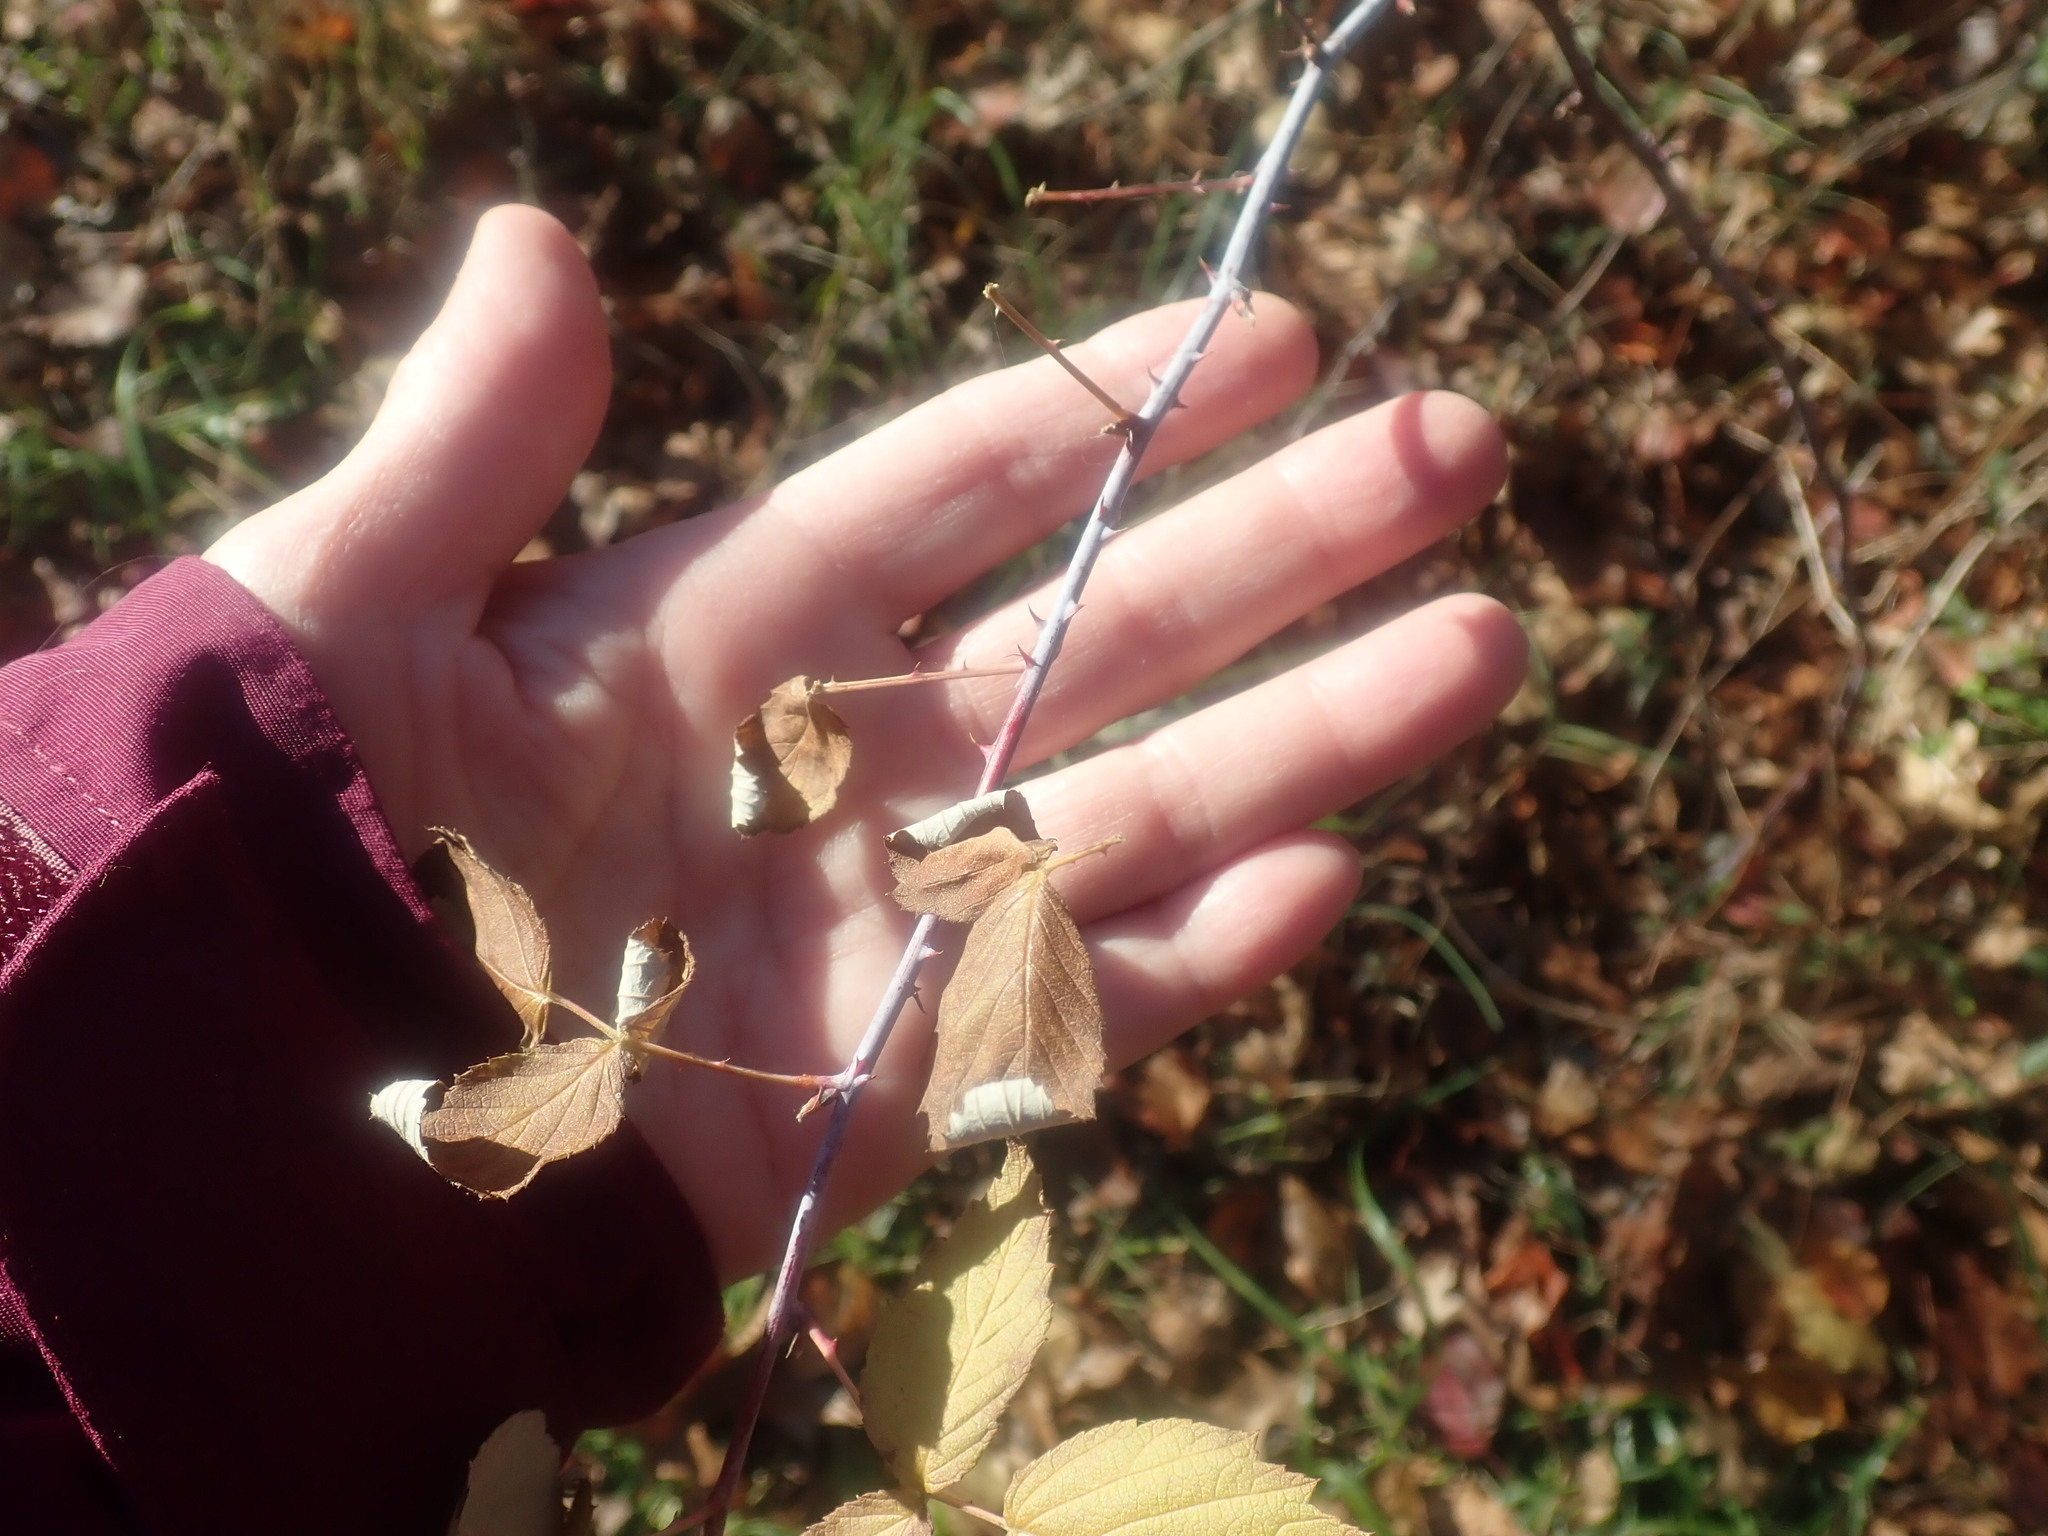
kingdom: Plantae
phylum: Tracheophyta
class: Magnoliopsida
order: Rosales
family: Rosaceae
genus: Rubus
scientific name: Rubus occidentalis
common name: Black raspberry
